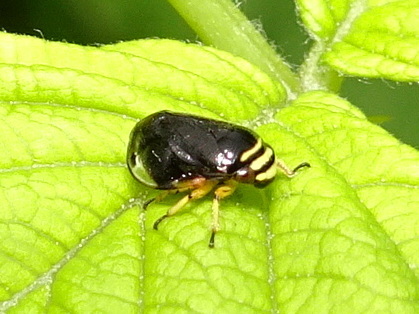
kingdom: Animalia
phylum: Arthropoda
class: Insecta
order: Hemiptera
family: Clastopteridae
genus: Clastoptera
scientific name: Clastoptera proteus
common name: Dogwood spittlebug
